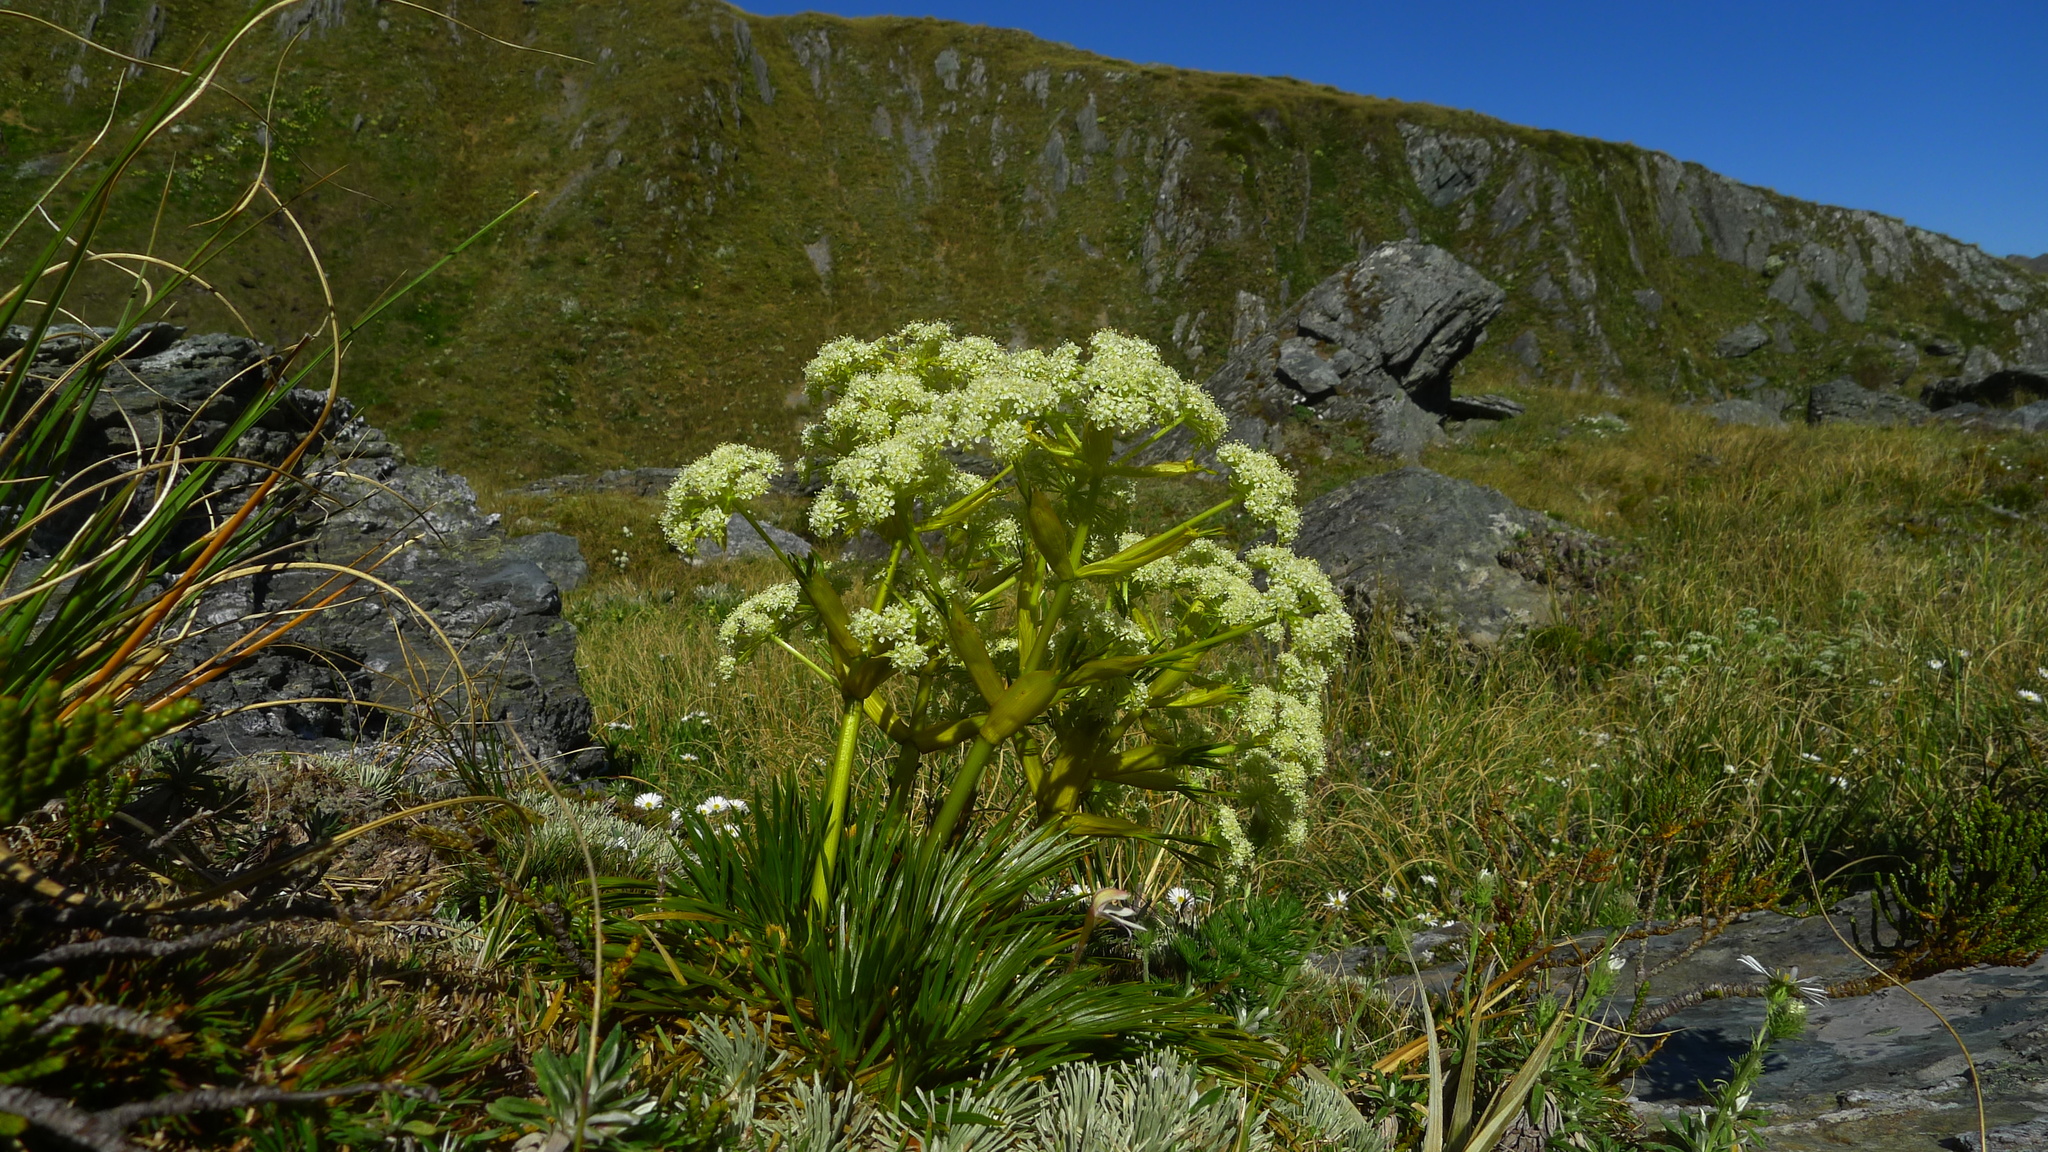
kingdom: Plantae
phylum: Tracheophyta
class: Magnoliopsida
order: Apiales
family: Apiaceae
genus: Aciphylla
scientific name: Aciphylla divisa
